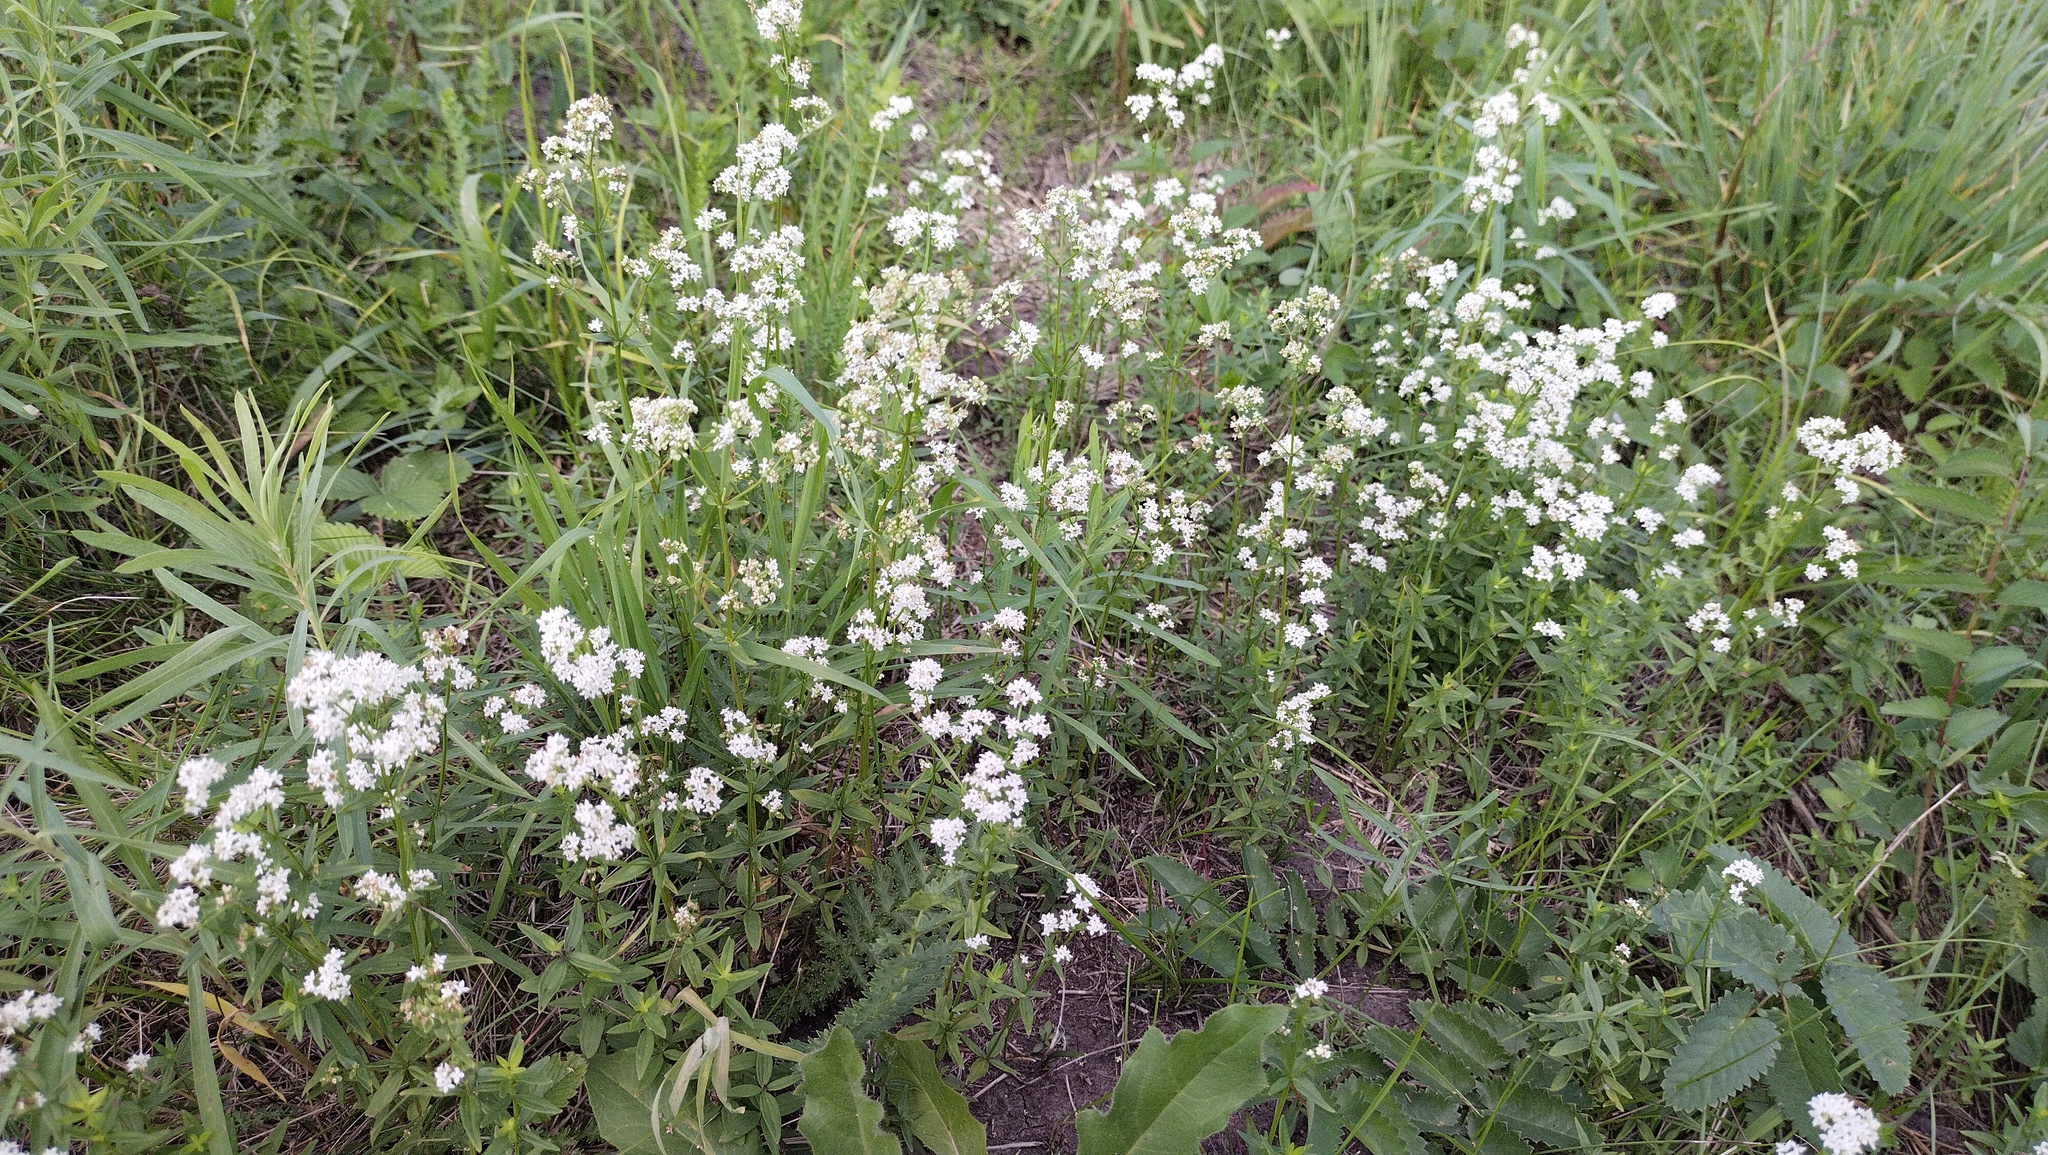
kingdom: Plantae
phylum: Tracheophyta
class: Magnoliopsida
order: Gentianales
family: Rubiaceae
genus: Galium
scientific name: Galium boreale
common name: Northern bedstraw
